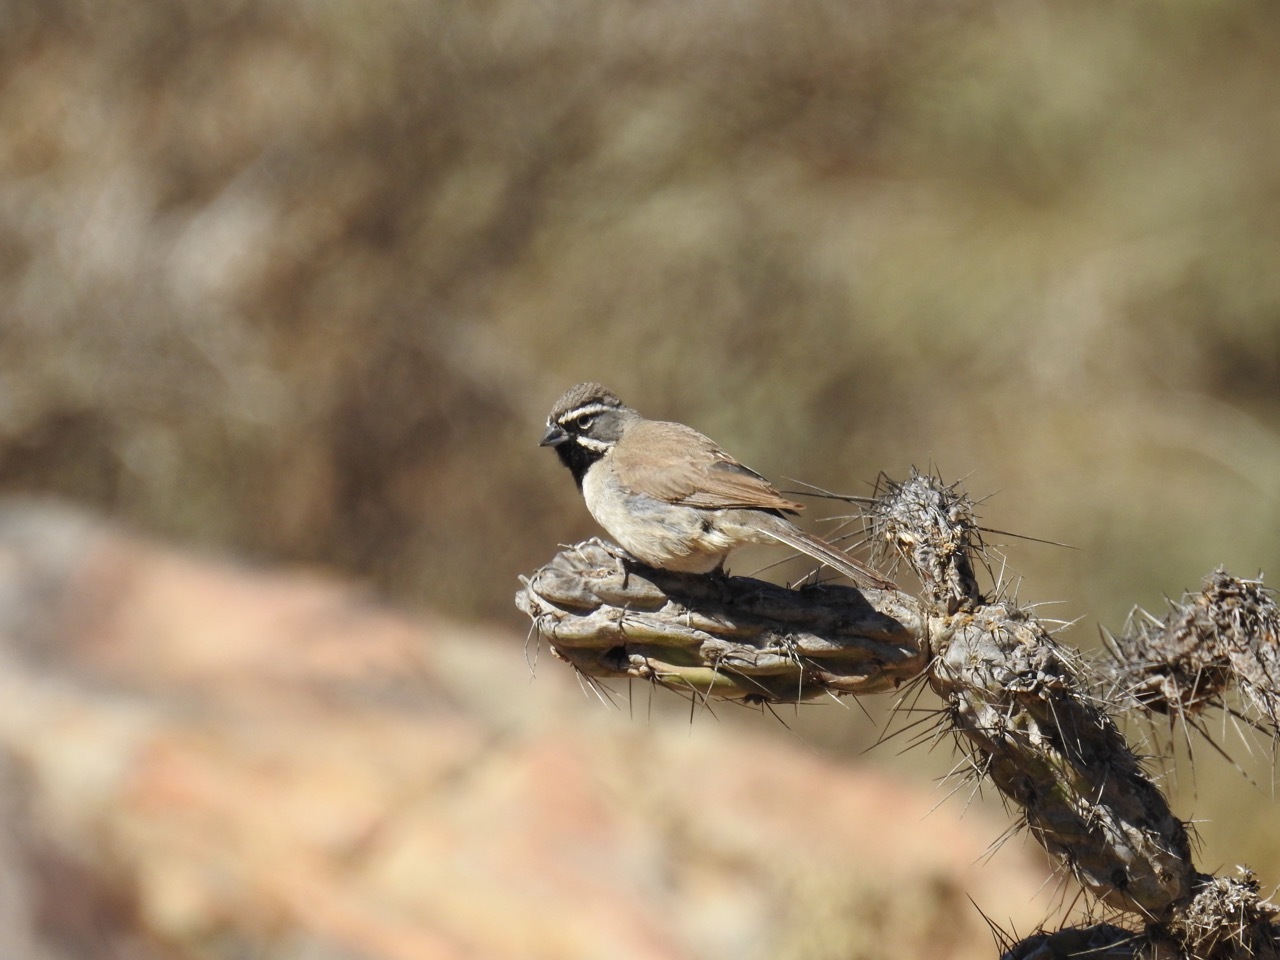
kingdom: Animalia
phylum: Chordata
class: Aves
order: Passeriformes
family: Passerellidae
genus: Amphispiza
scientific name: Amphispiza bilineata
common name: Black-throated sparrow
